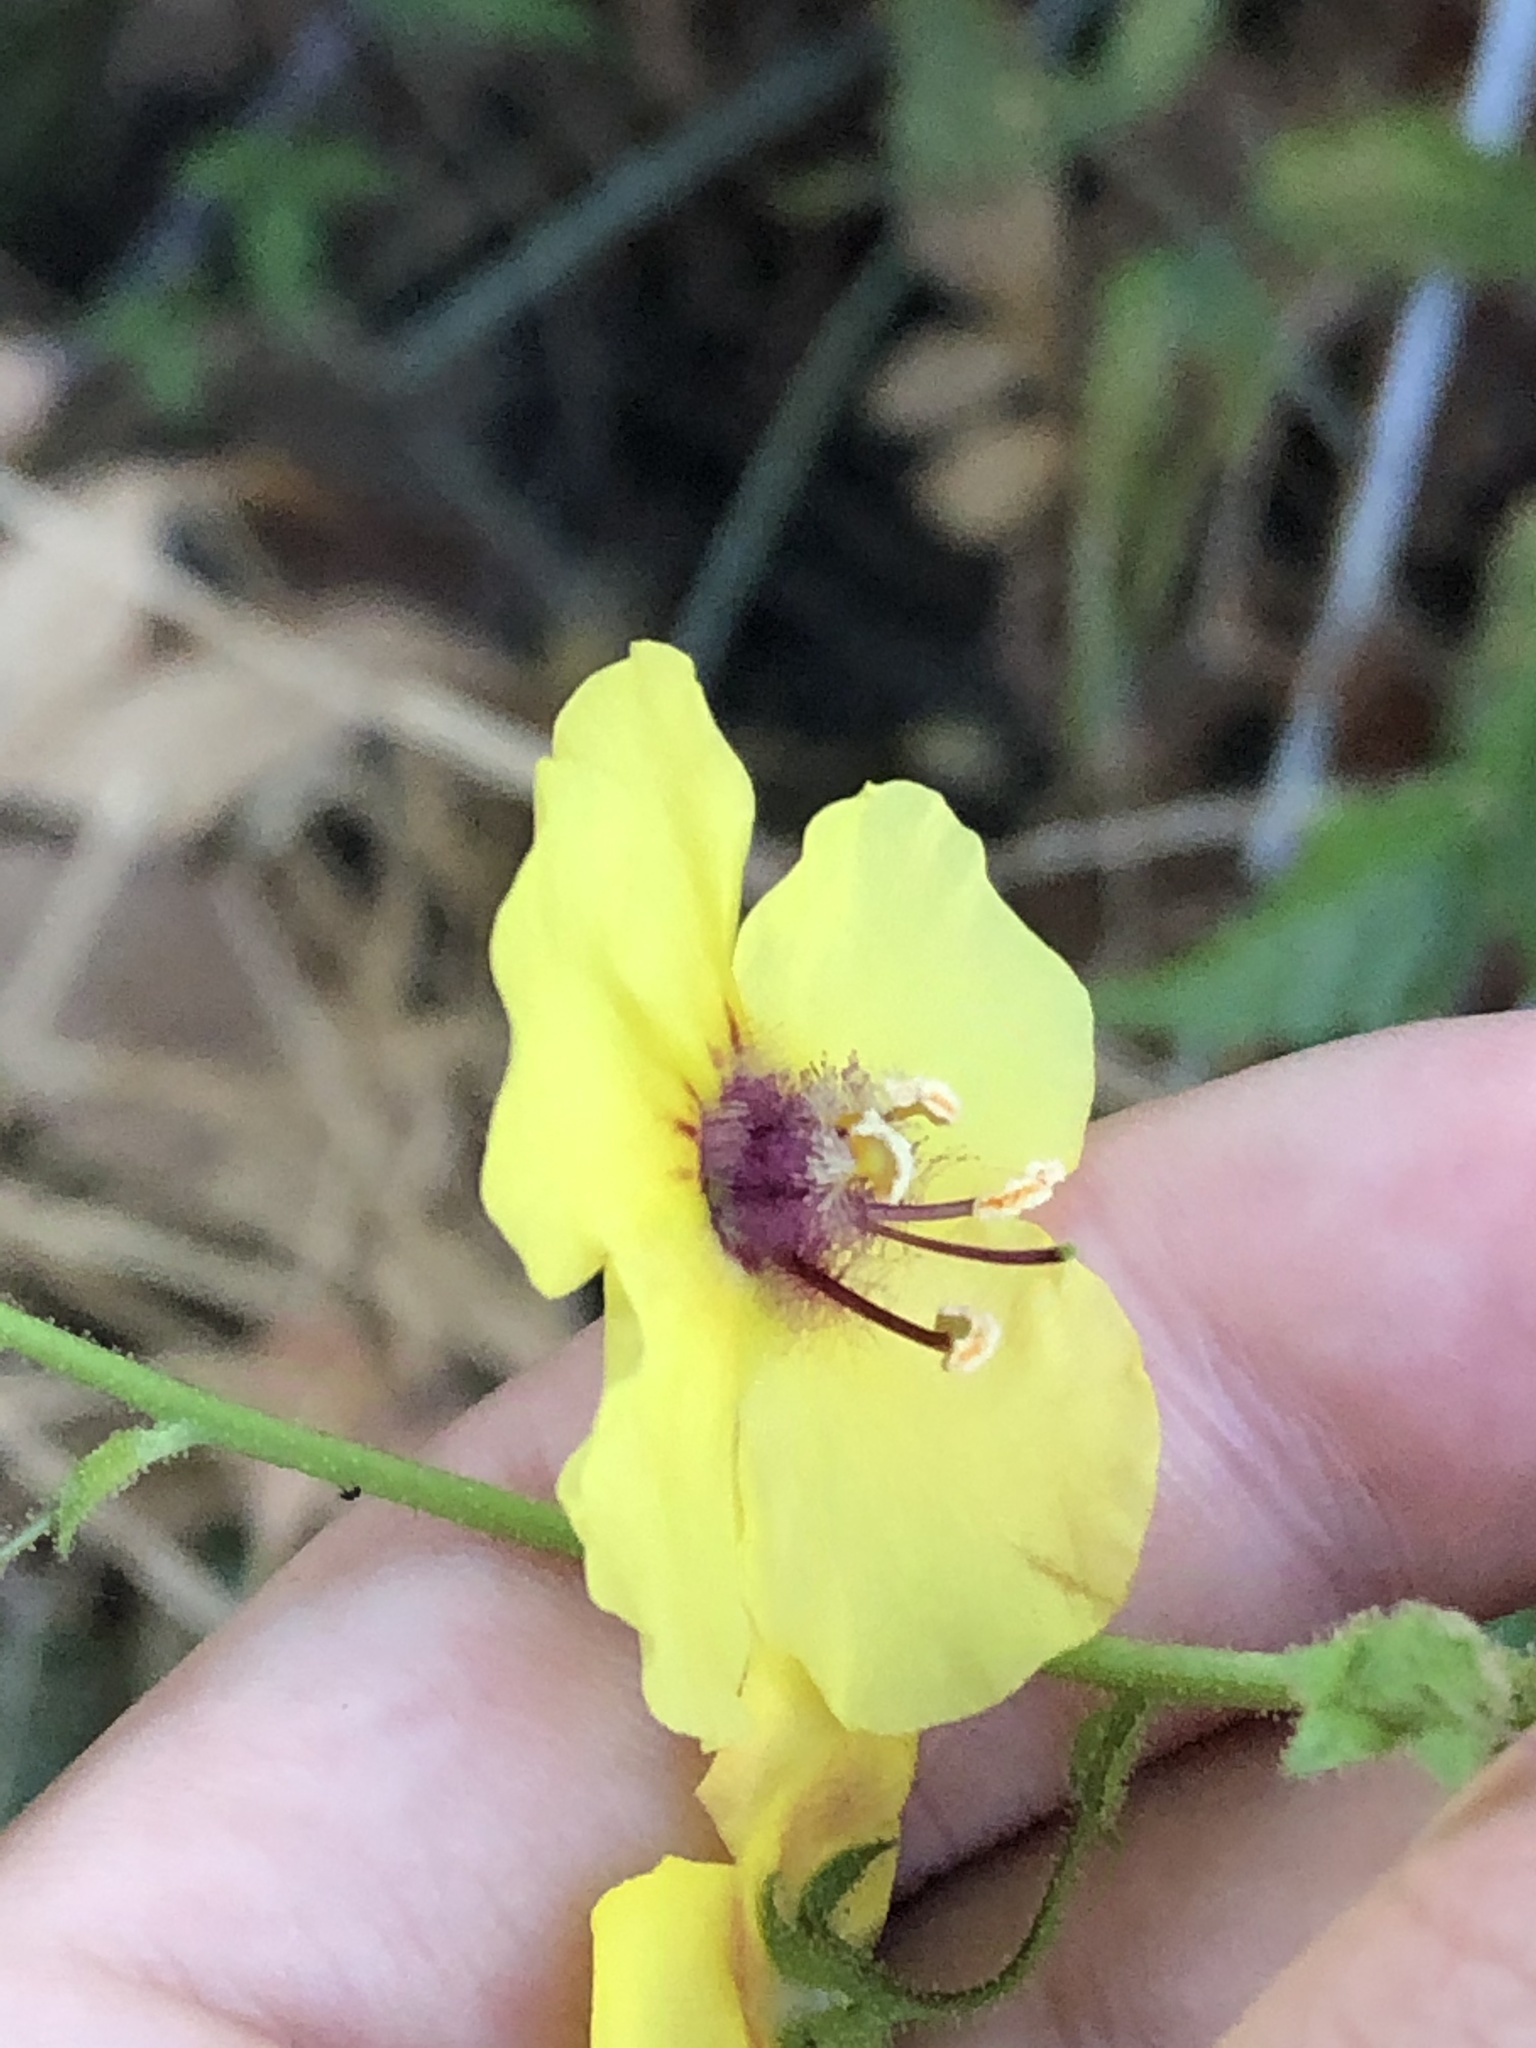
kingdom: Plantae
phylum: Tracheophyta
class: Magnoliopsida
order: Lamiales
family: Scrophulariaceae
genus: Verbascum
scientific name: Verbascum blattaria
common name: Moth mullein
